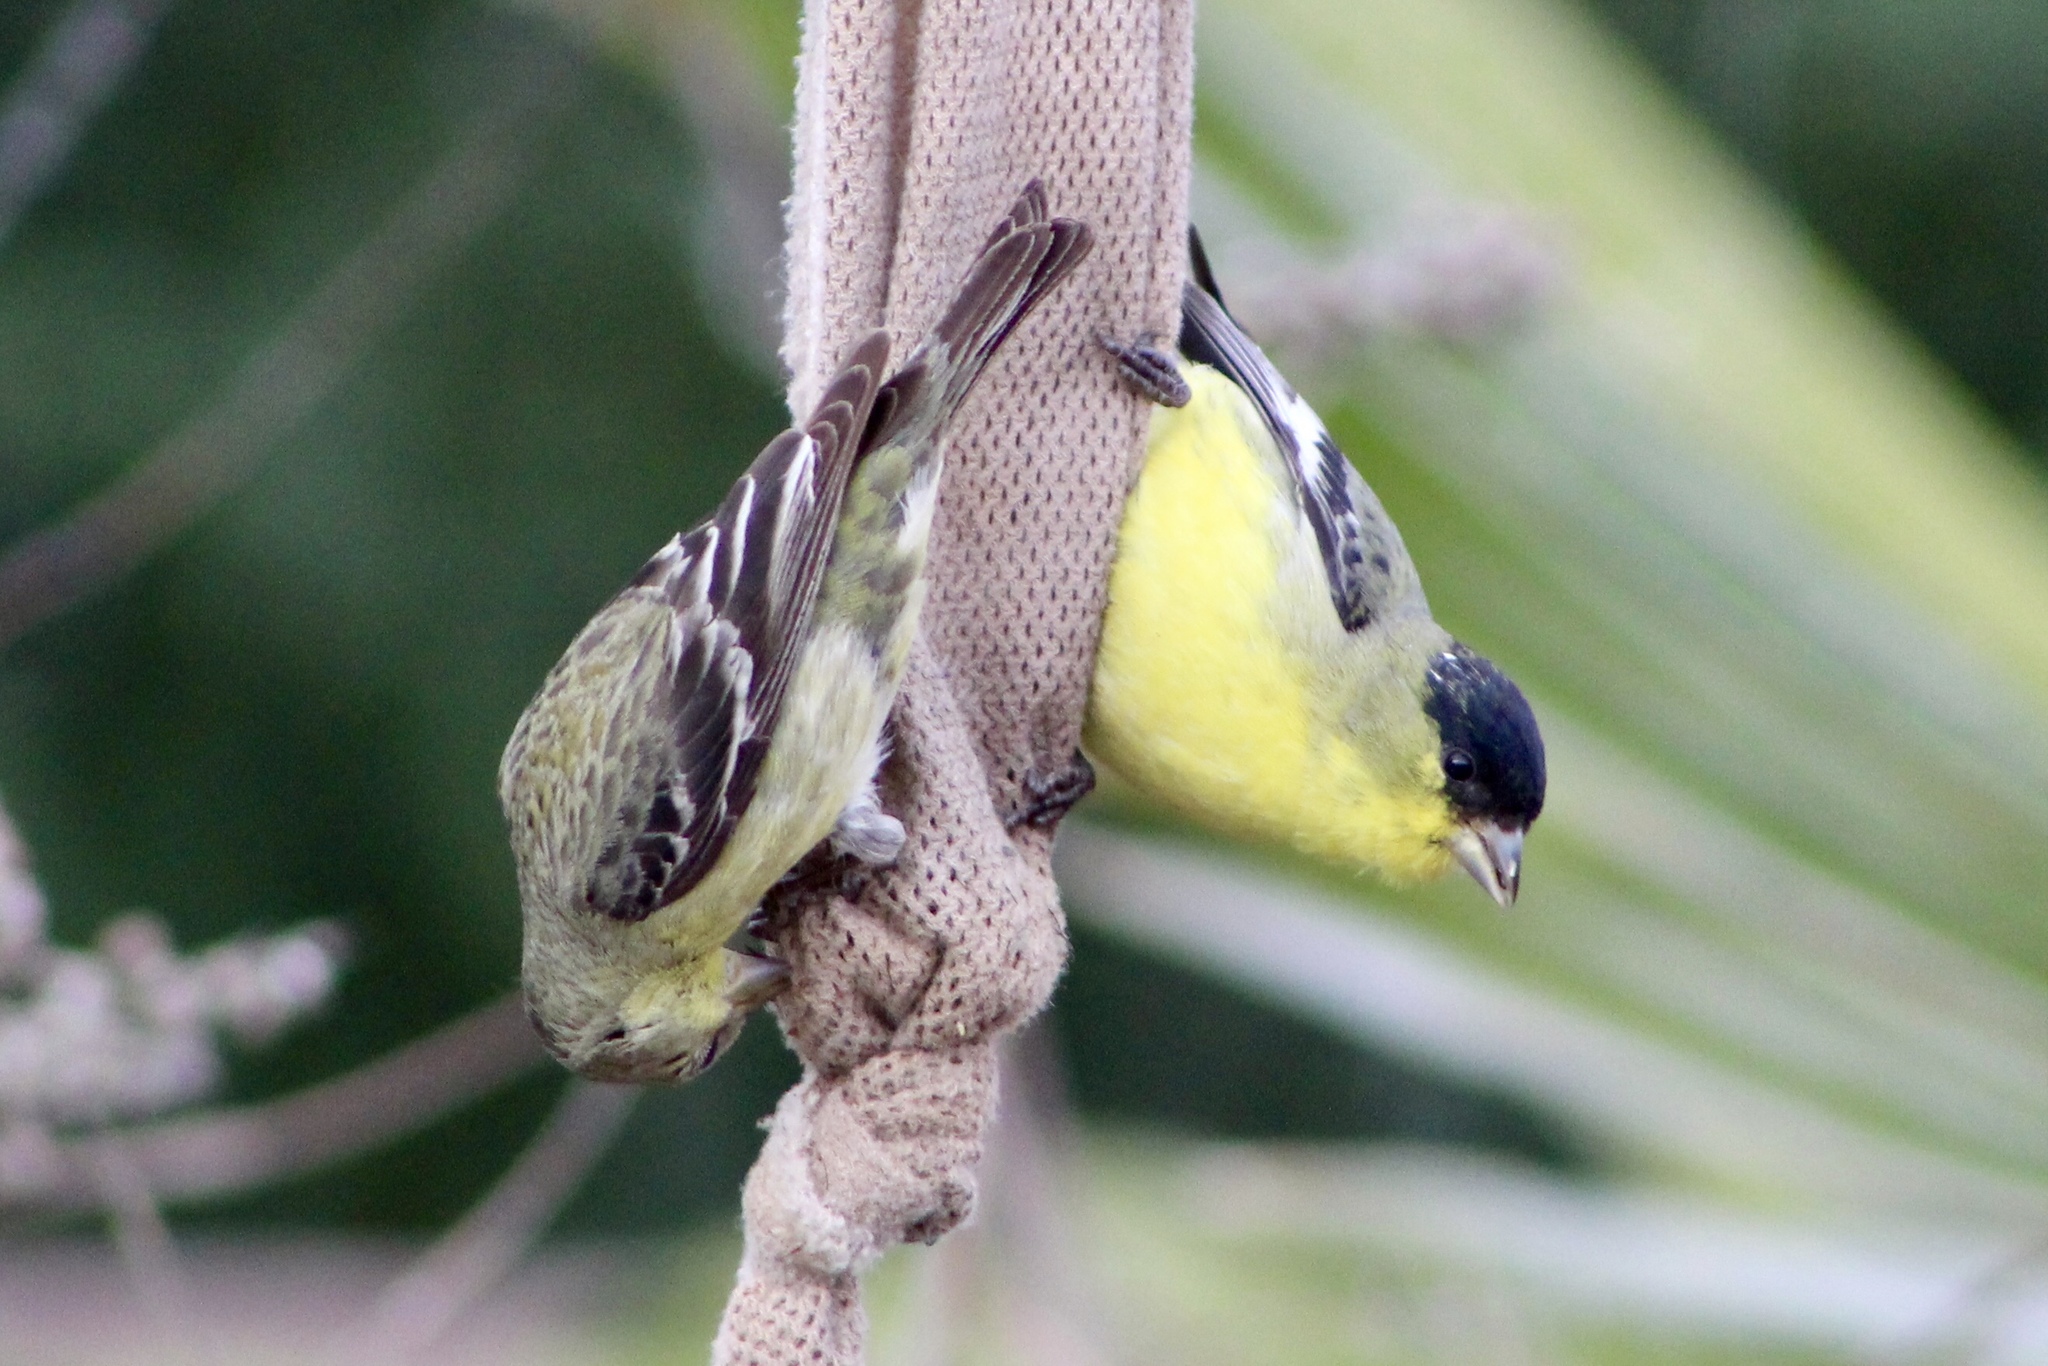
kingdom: Animalia
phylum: Chordata
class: Aves
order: Passeriformes
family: Fringillidae
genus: Spinus
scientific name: Spinus psaltria
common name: Lesser goldfinch
